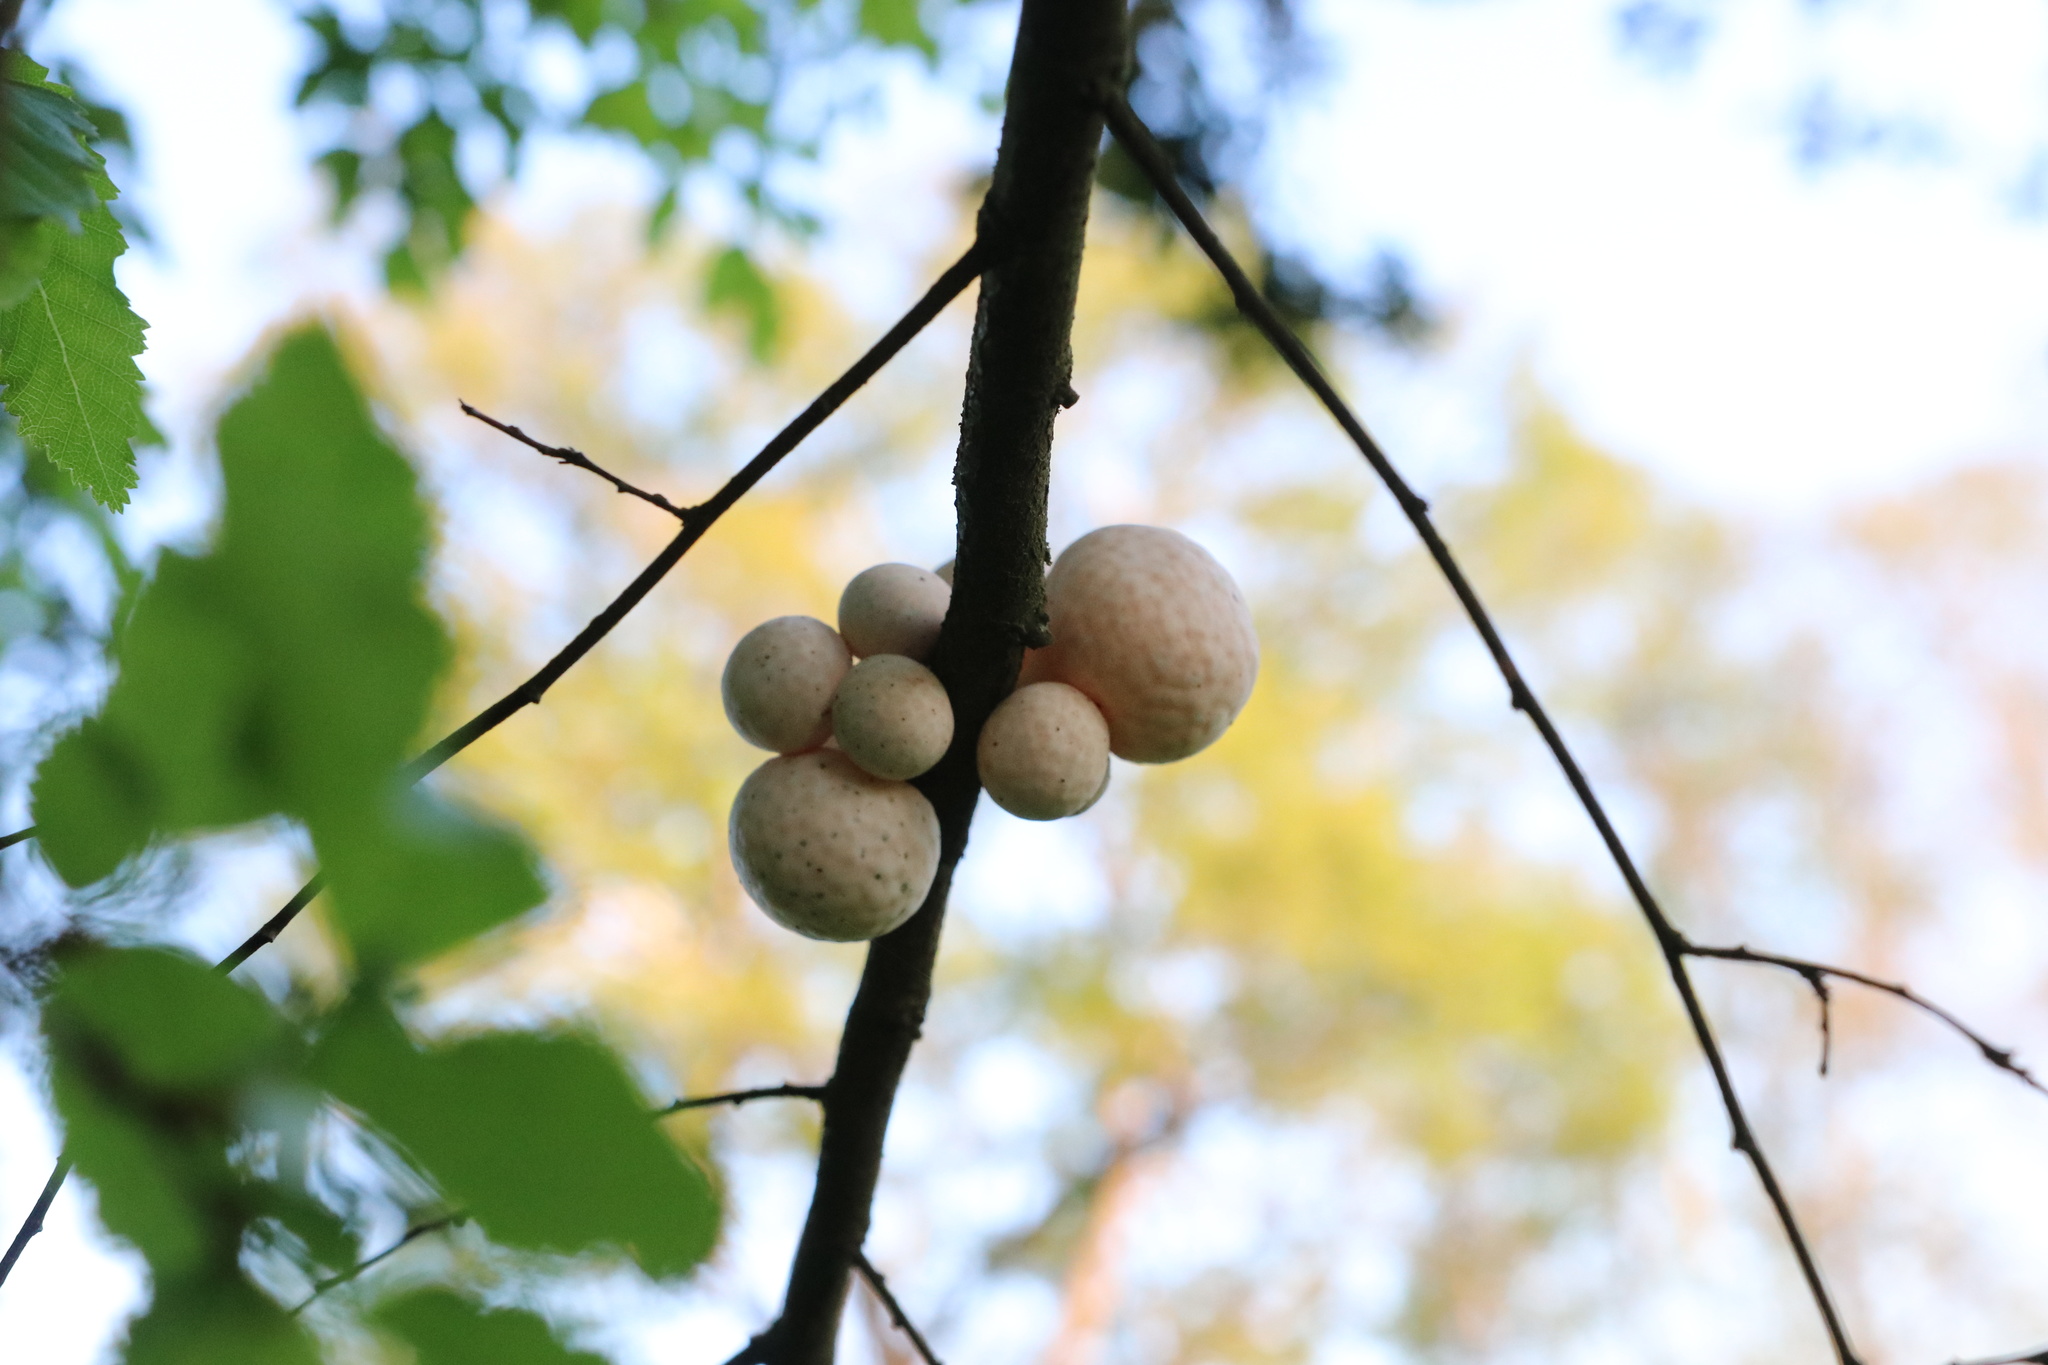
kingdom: Fungi
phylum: Ascomycota
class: Leotiomycetes
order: Cyttariales
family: Cyttariaceae
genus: Cyttaria
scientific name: Cyttaria espinosae
